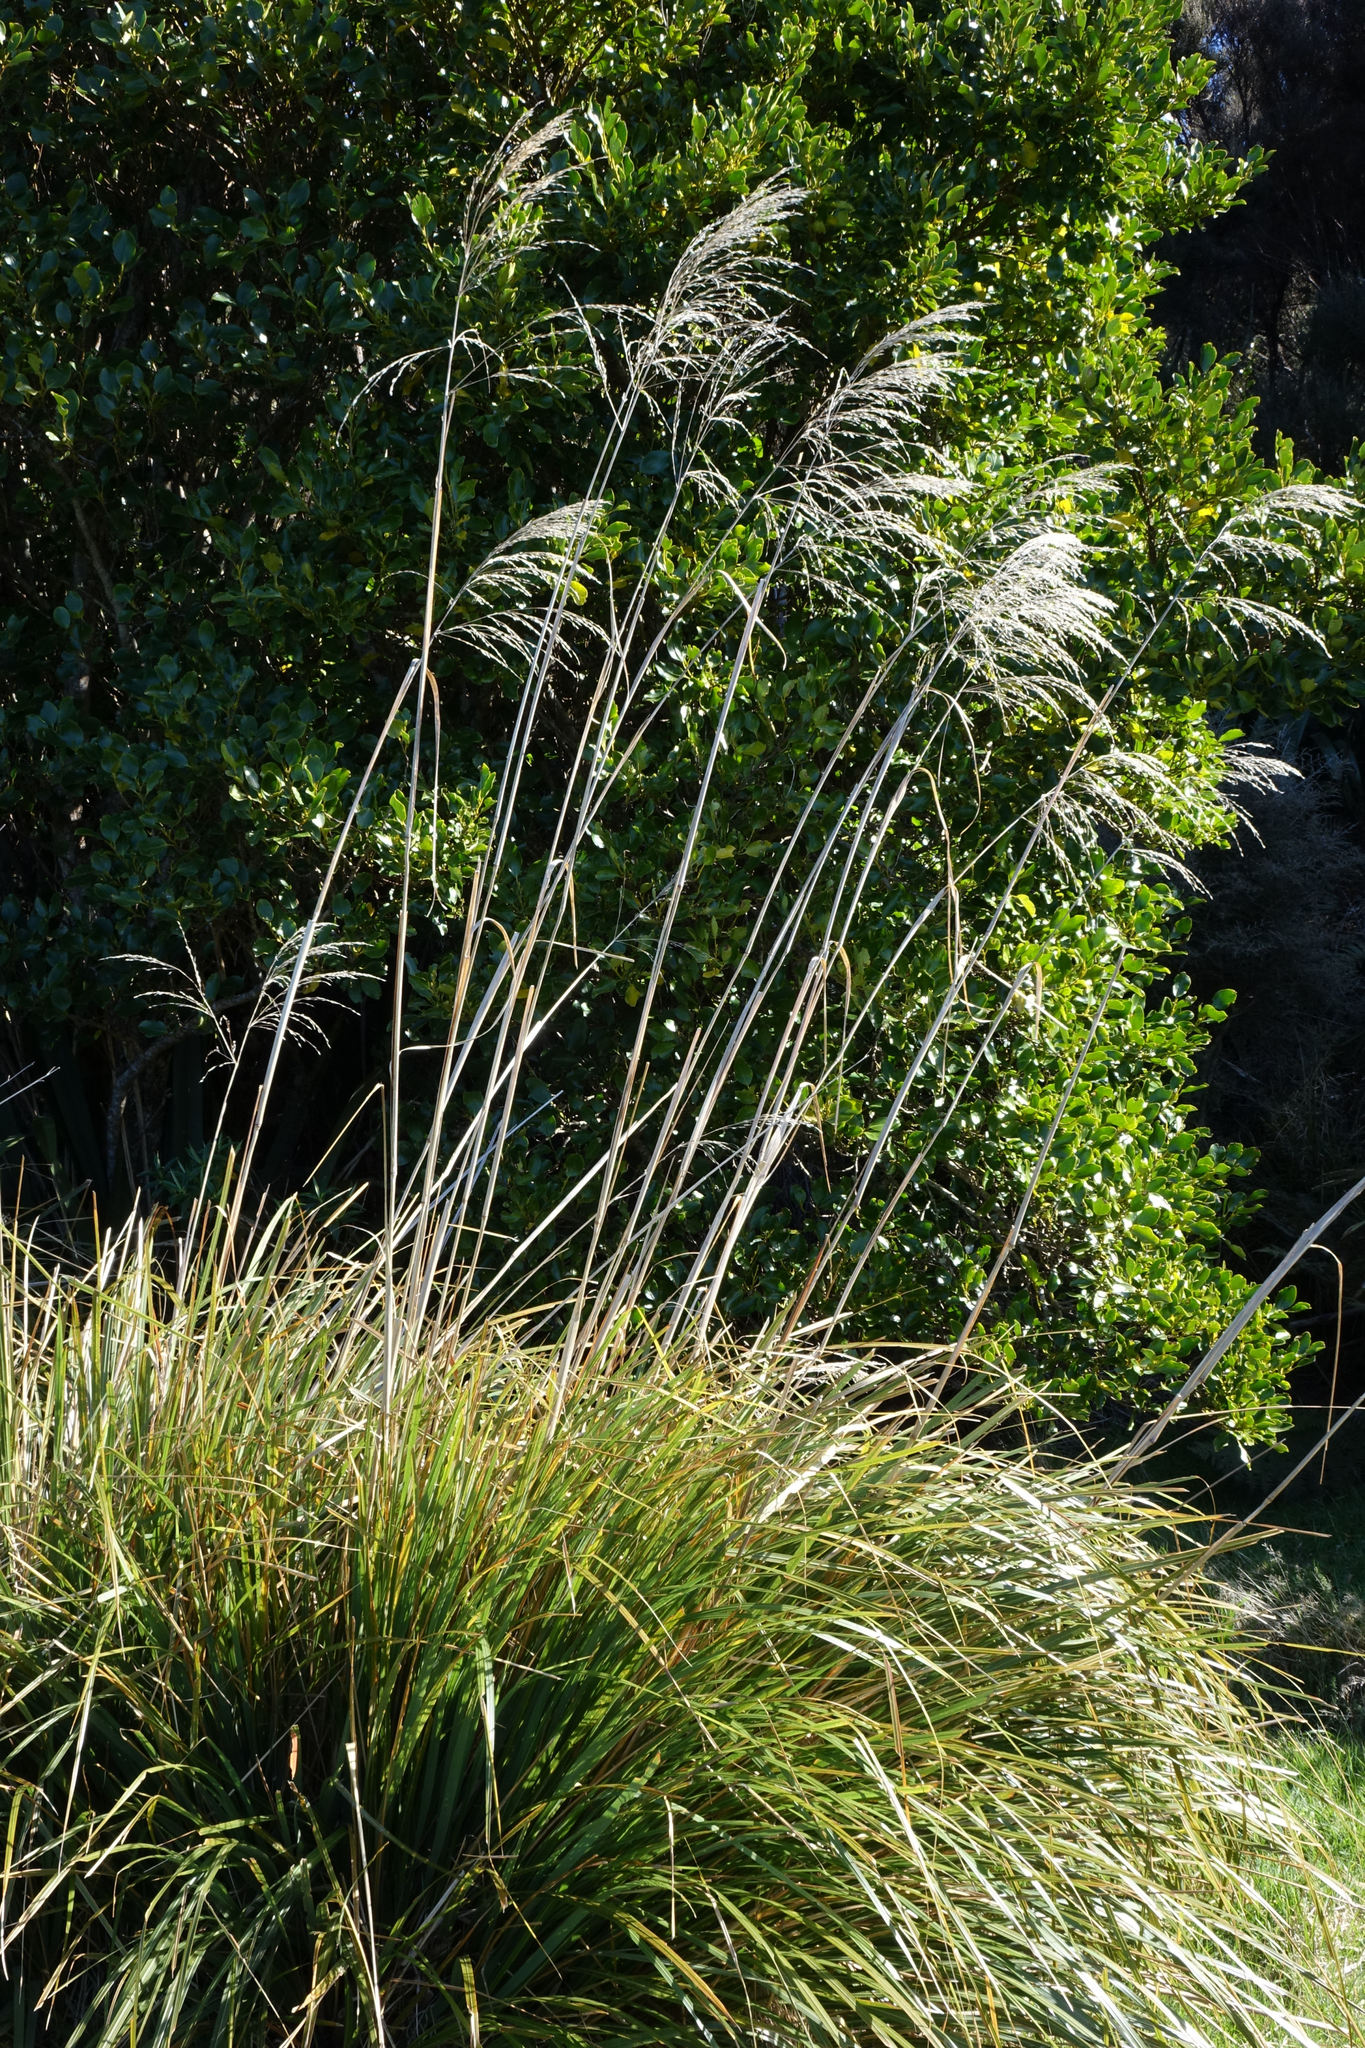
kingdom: Plantae
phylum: Tracheophyta
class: Liliopsida
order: Poales
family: Poaceae
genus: Chionochloa
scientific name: Chionochloa conspicua
